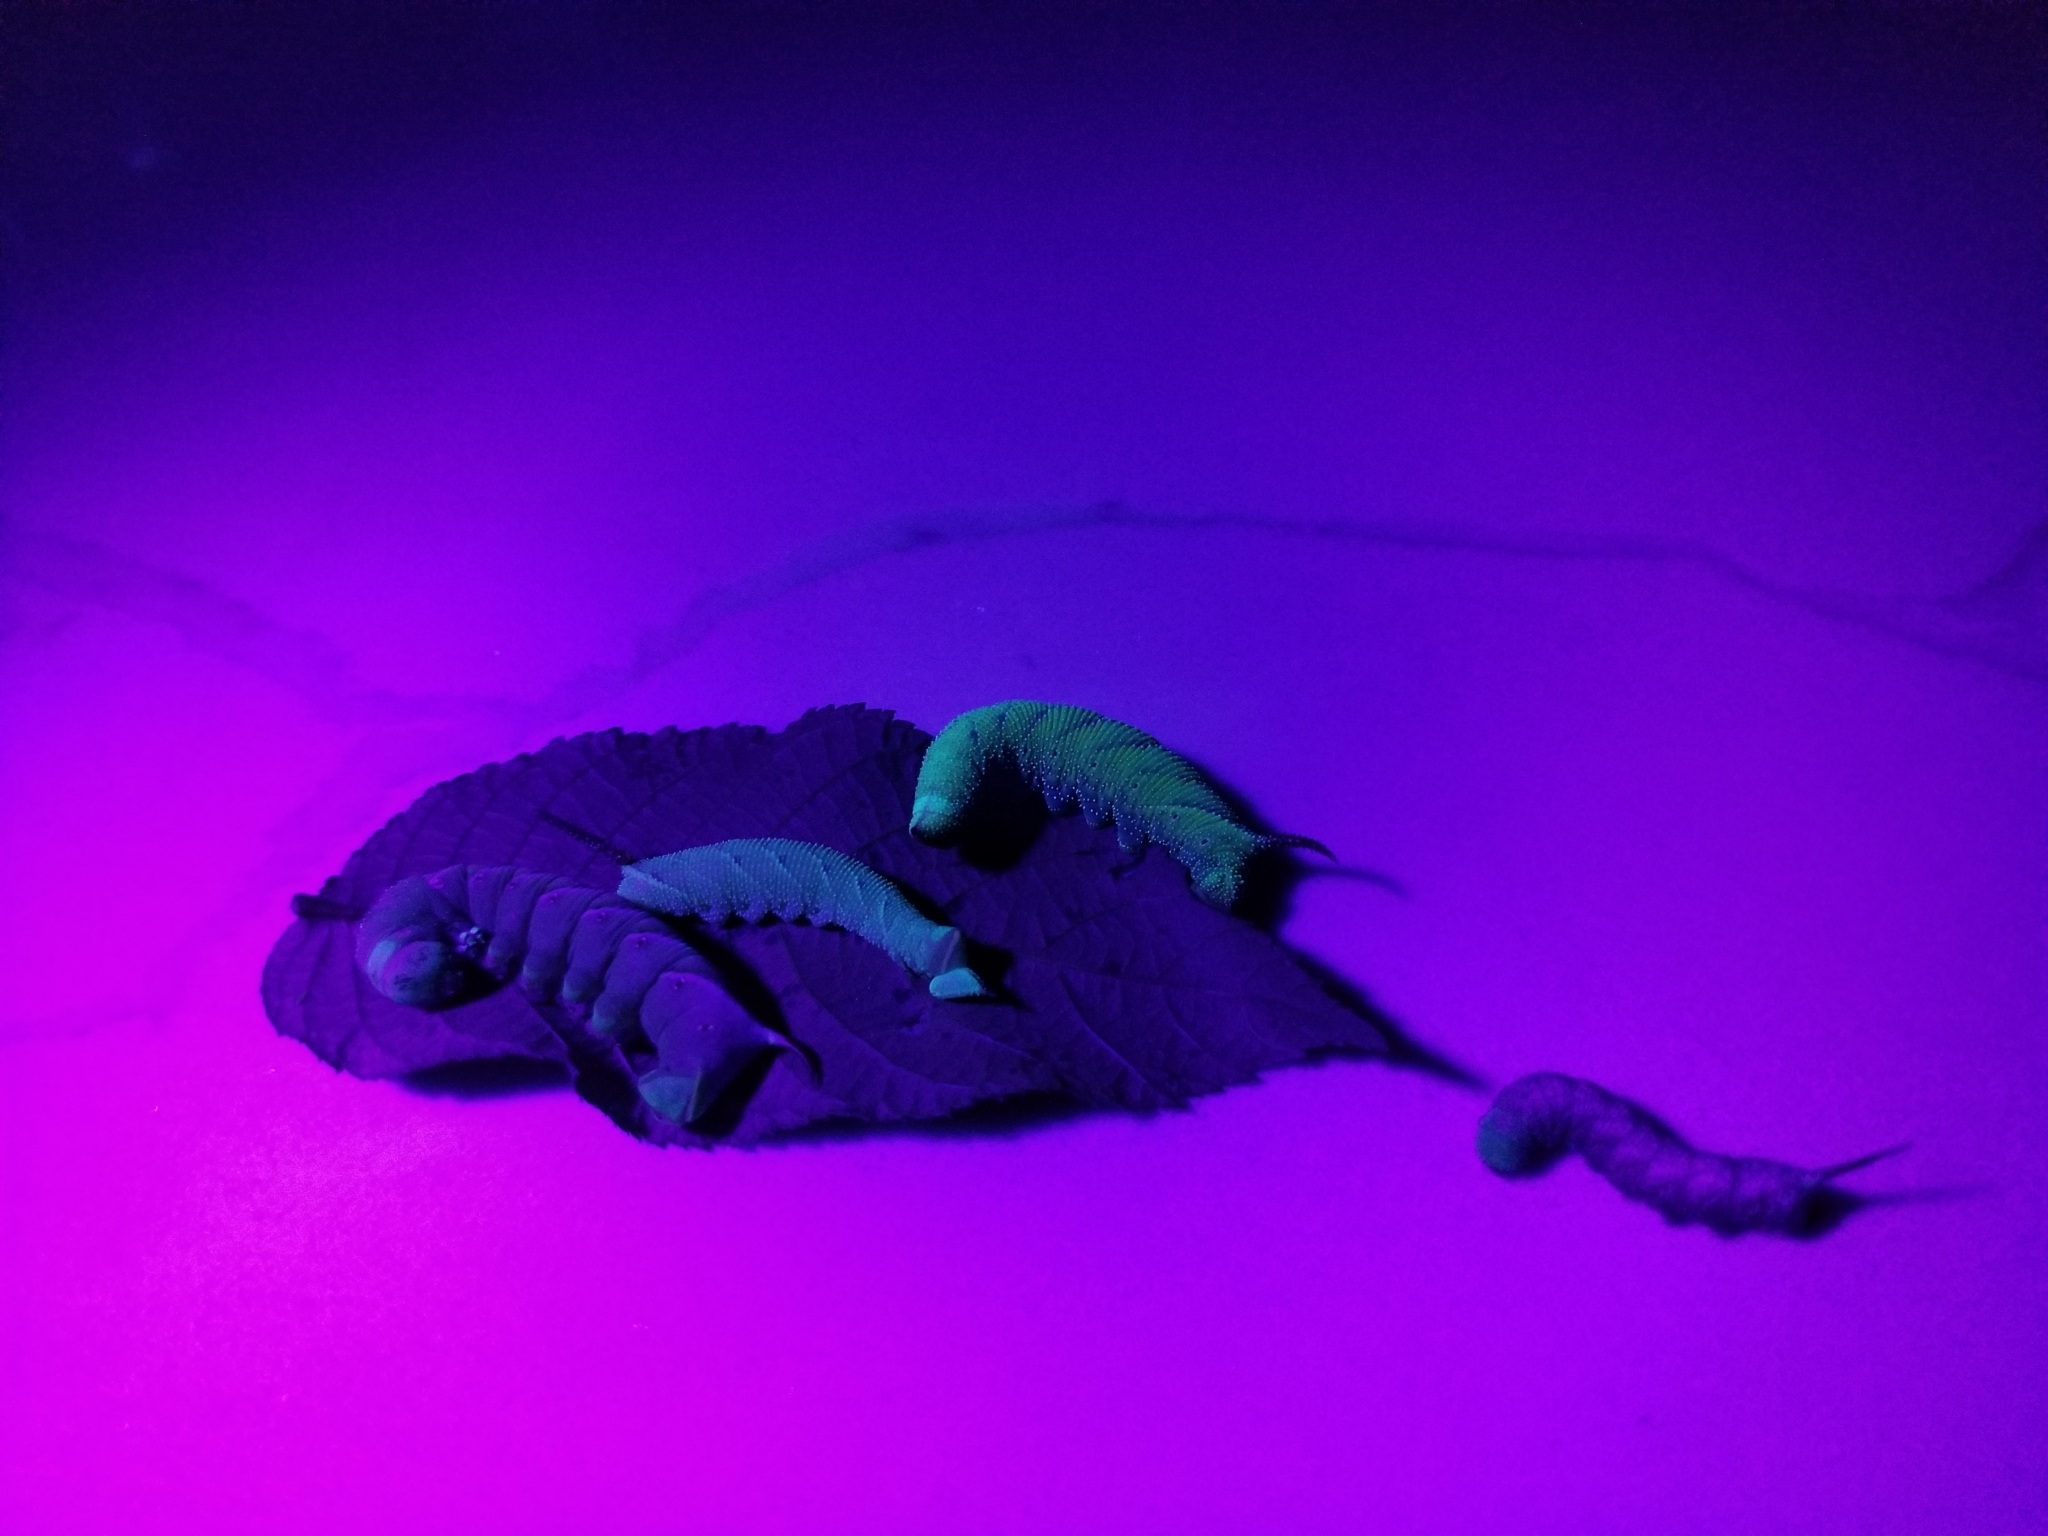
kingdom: Animalia
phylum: Arthropoda
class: Insecta
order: Lepidoptera
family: Sphingidae
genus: Amorpha
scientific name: Amorpha juglandis
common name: Walnut sphinx
